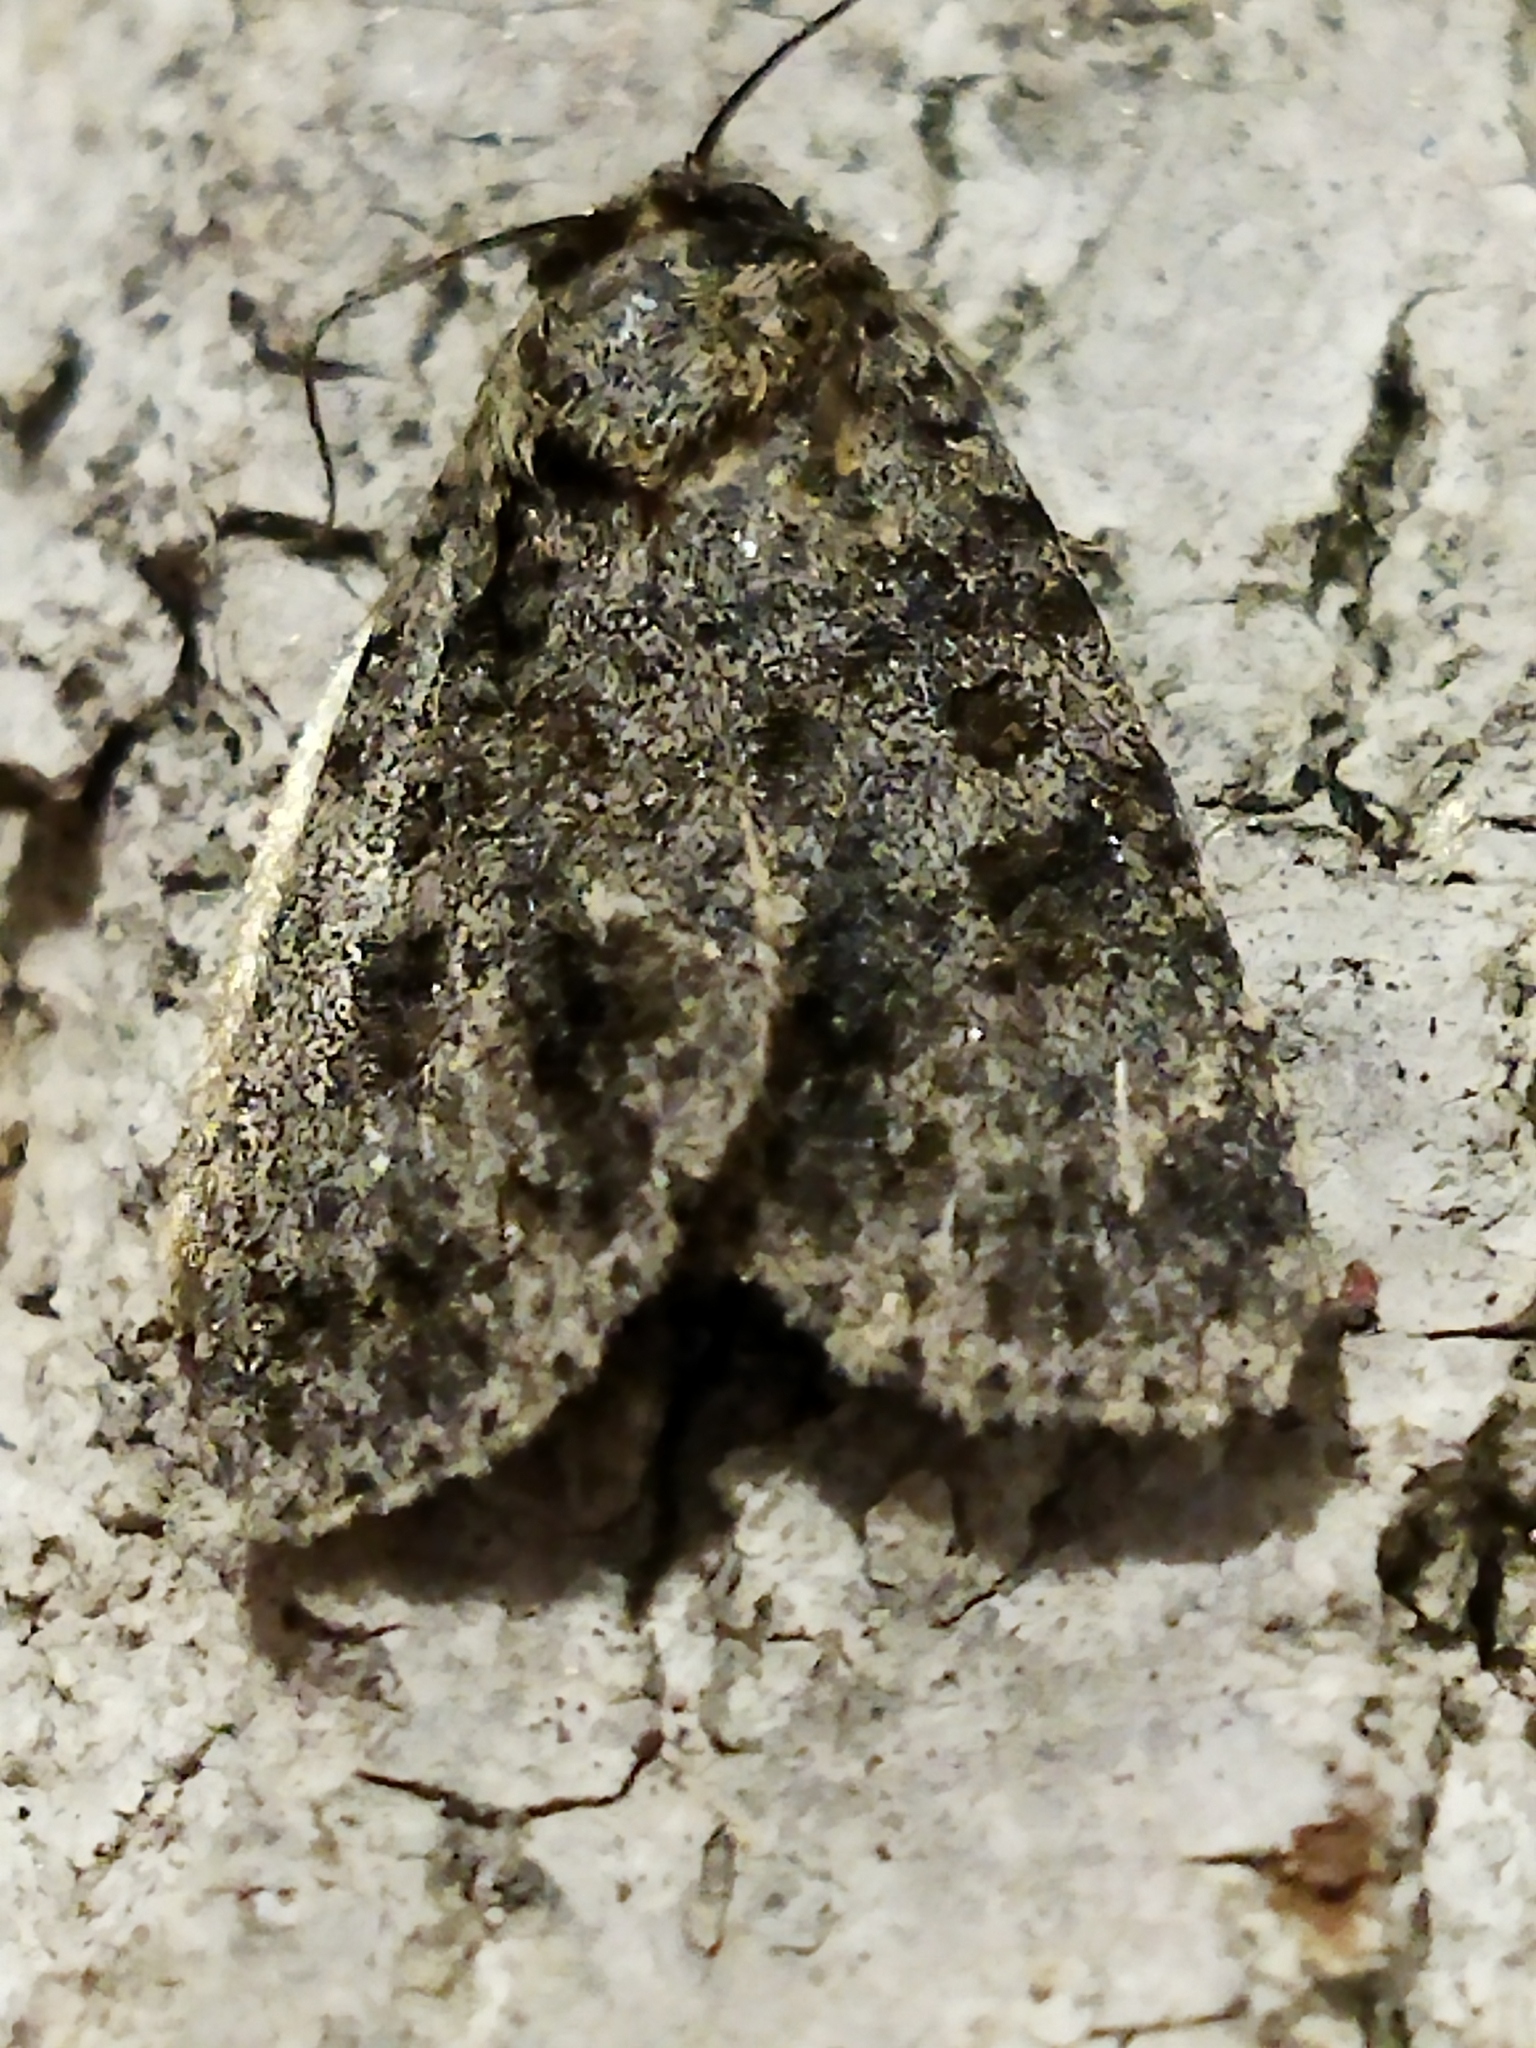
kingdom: Animalia
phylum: Arthropoda
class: Insecta
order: Lepidoptera
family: Noctuidae
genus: Acronicta
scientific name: Acronicta rumicis
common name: Knot grass
